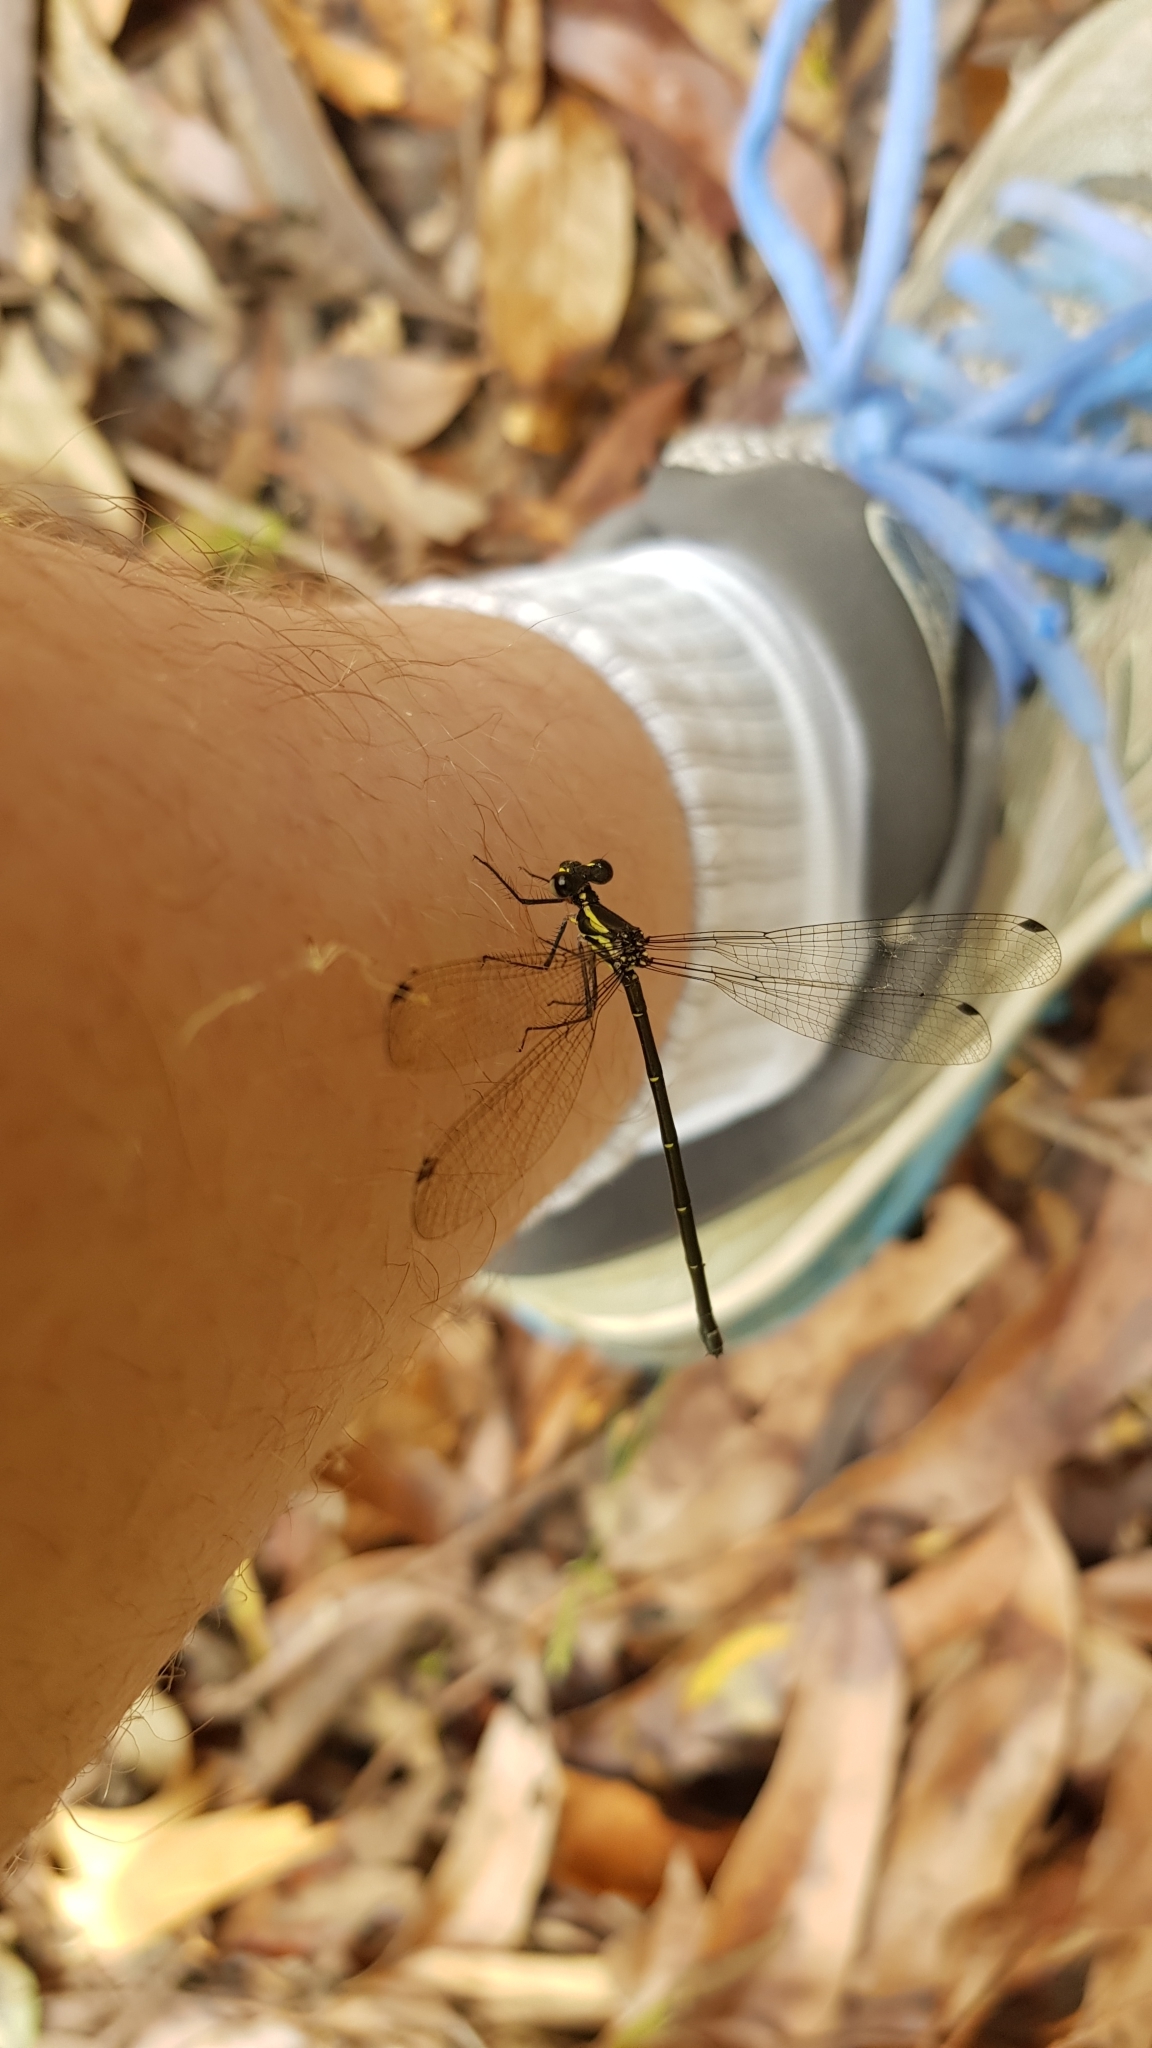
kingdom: Animalia
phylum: Arthropoda
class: Insecta
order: Odonata
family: Argiolestidae
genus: Austroargiolestes
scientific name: Austroargiolestes icteromelas
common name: Common flatwing
